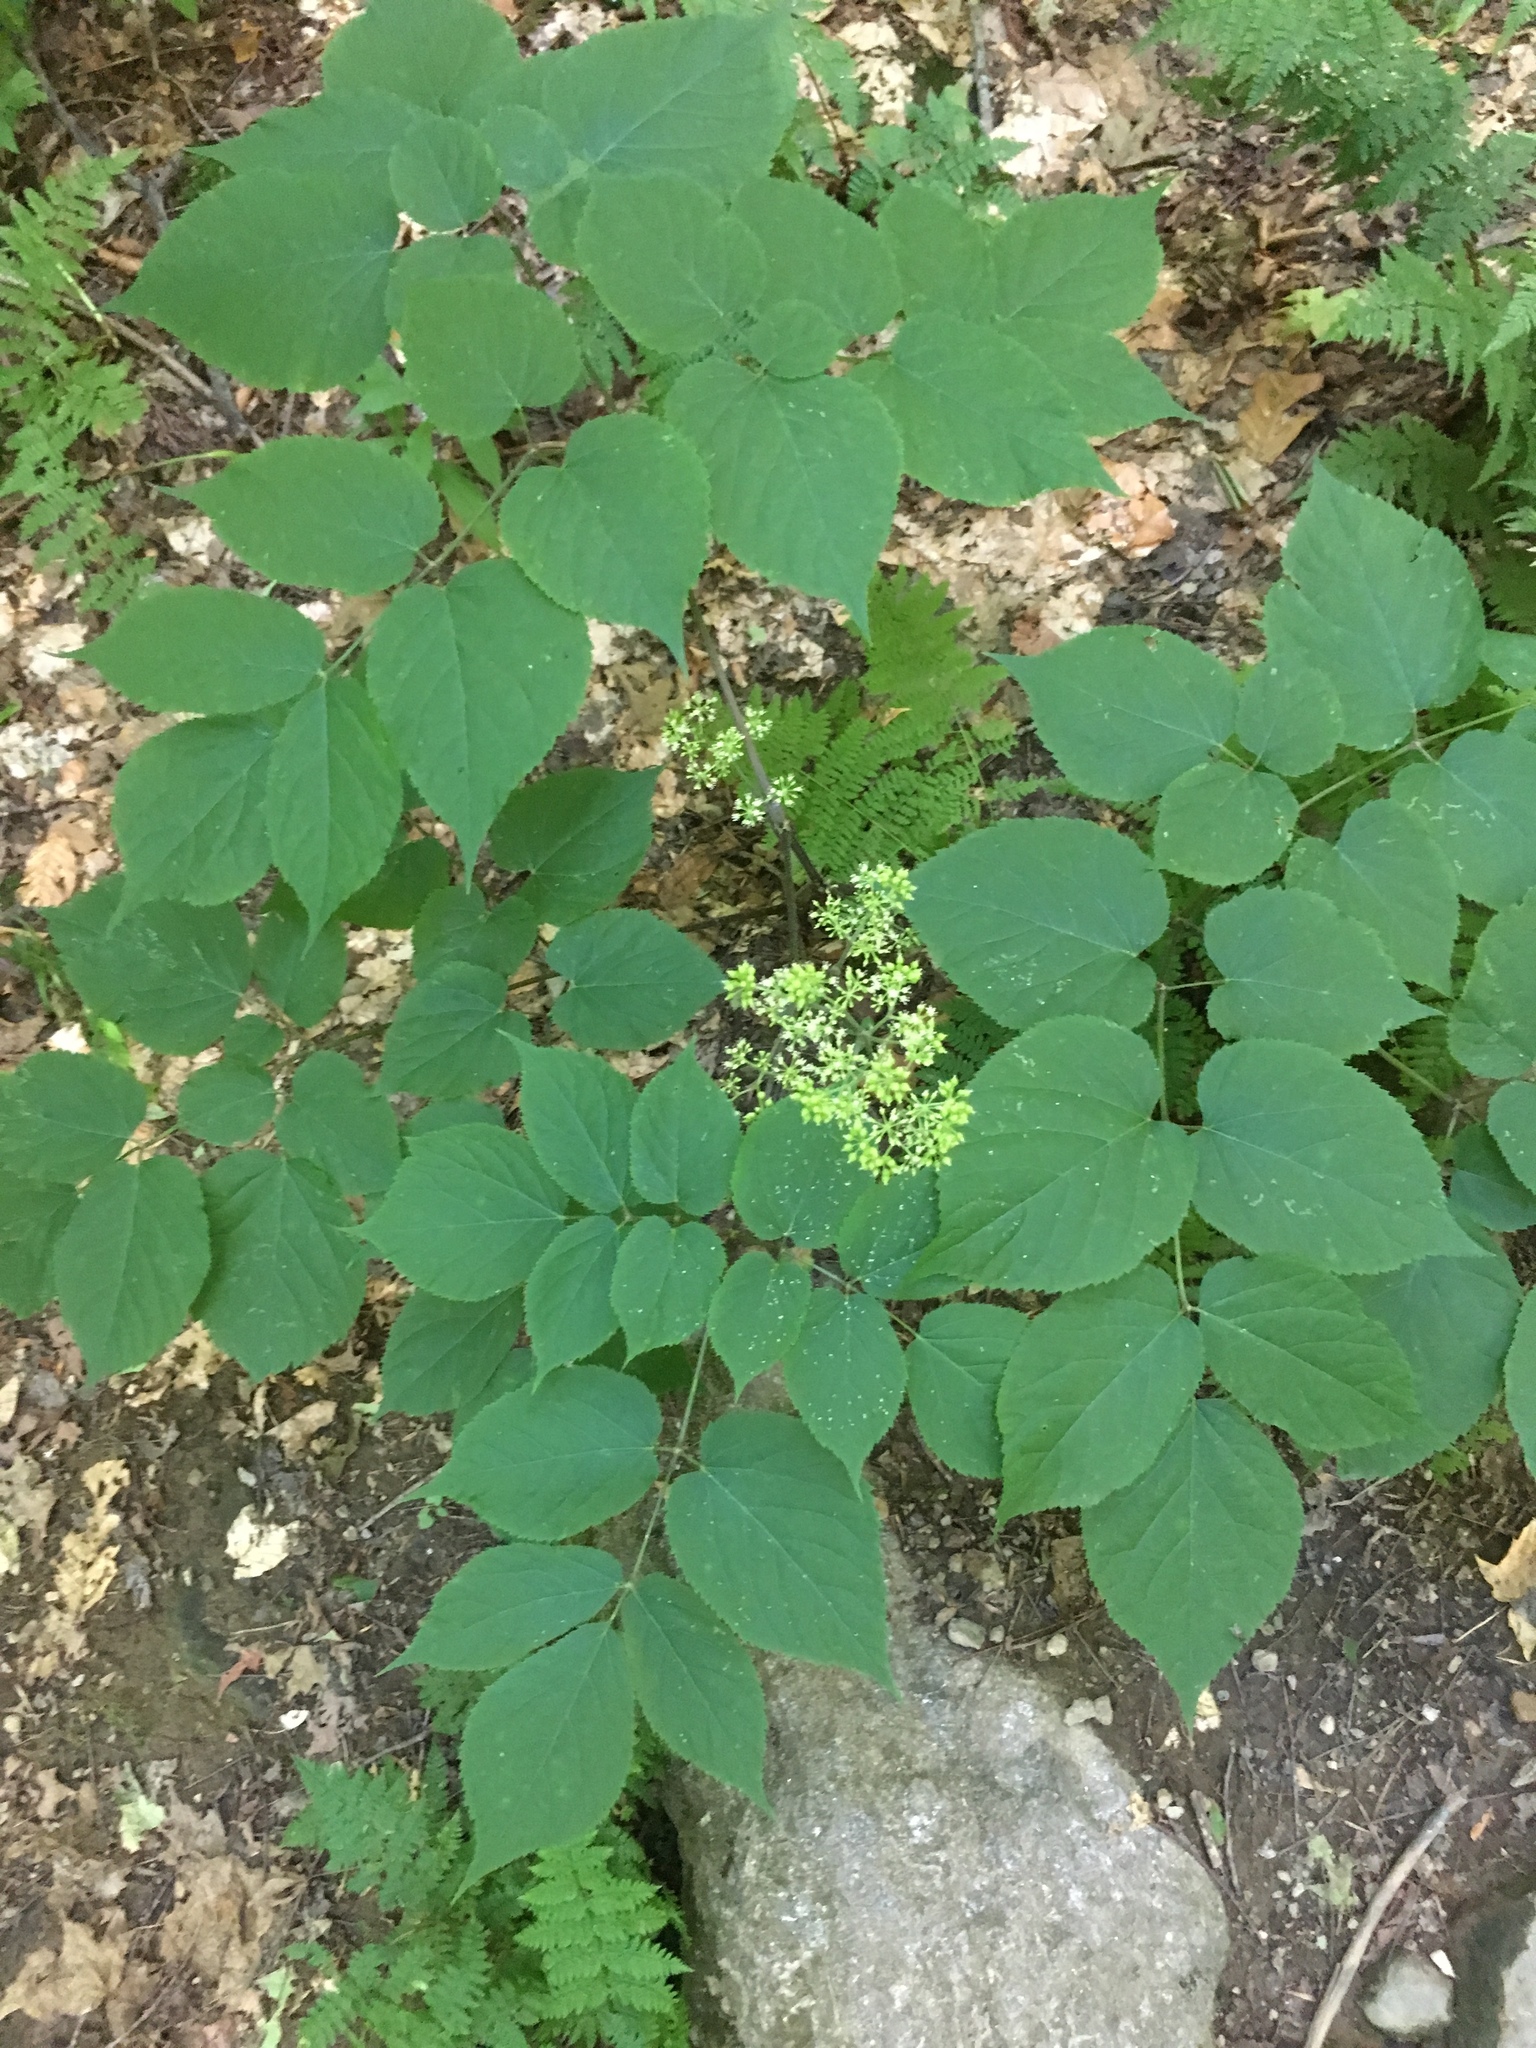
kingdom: Plantae
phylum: Tracheophyta
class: Magnoliopsida
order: Apiales
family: Araliaceae
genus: Aralia
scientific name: Aralia racemosa
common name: American-spikenard
